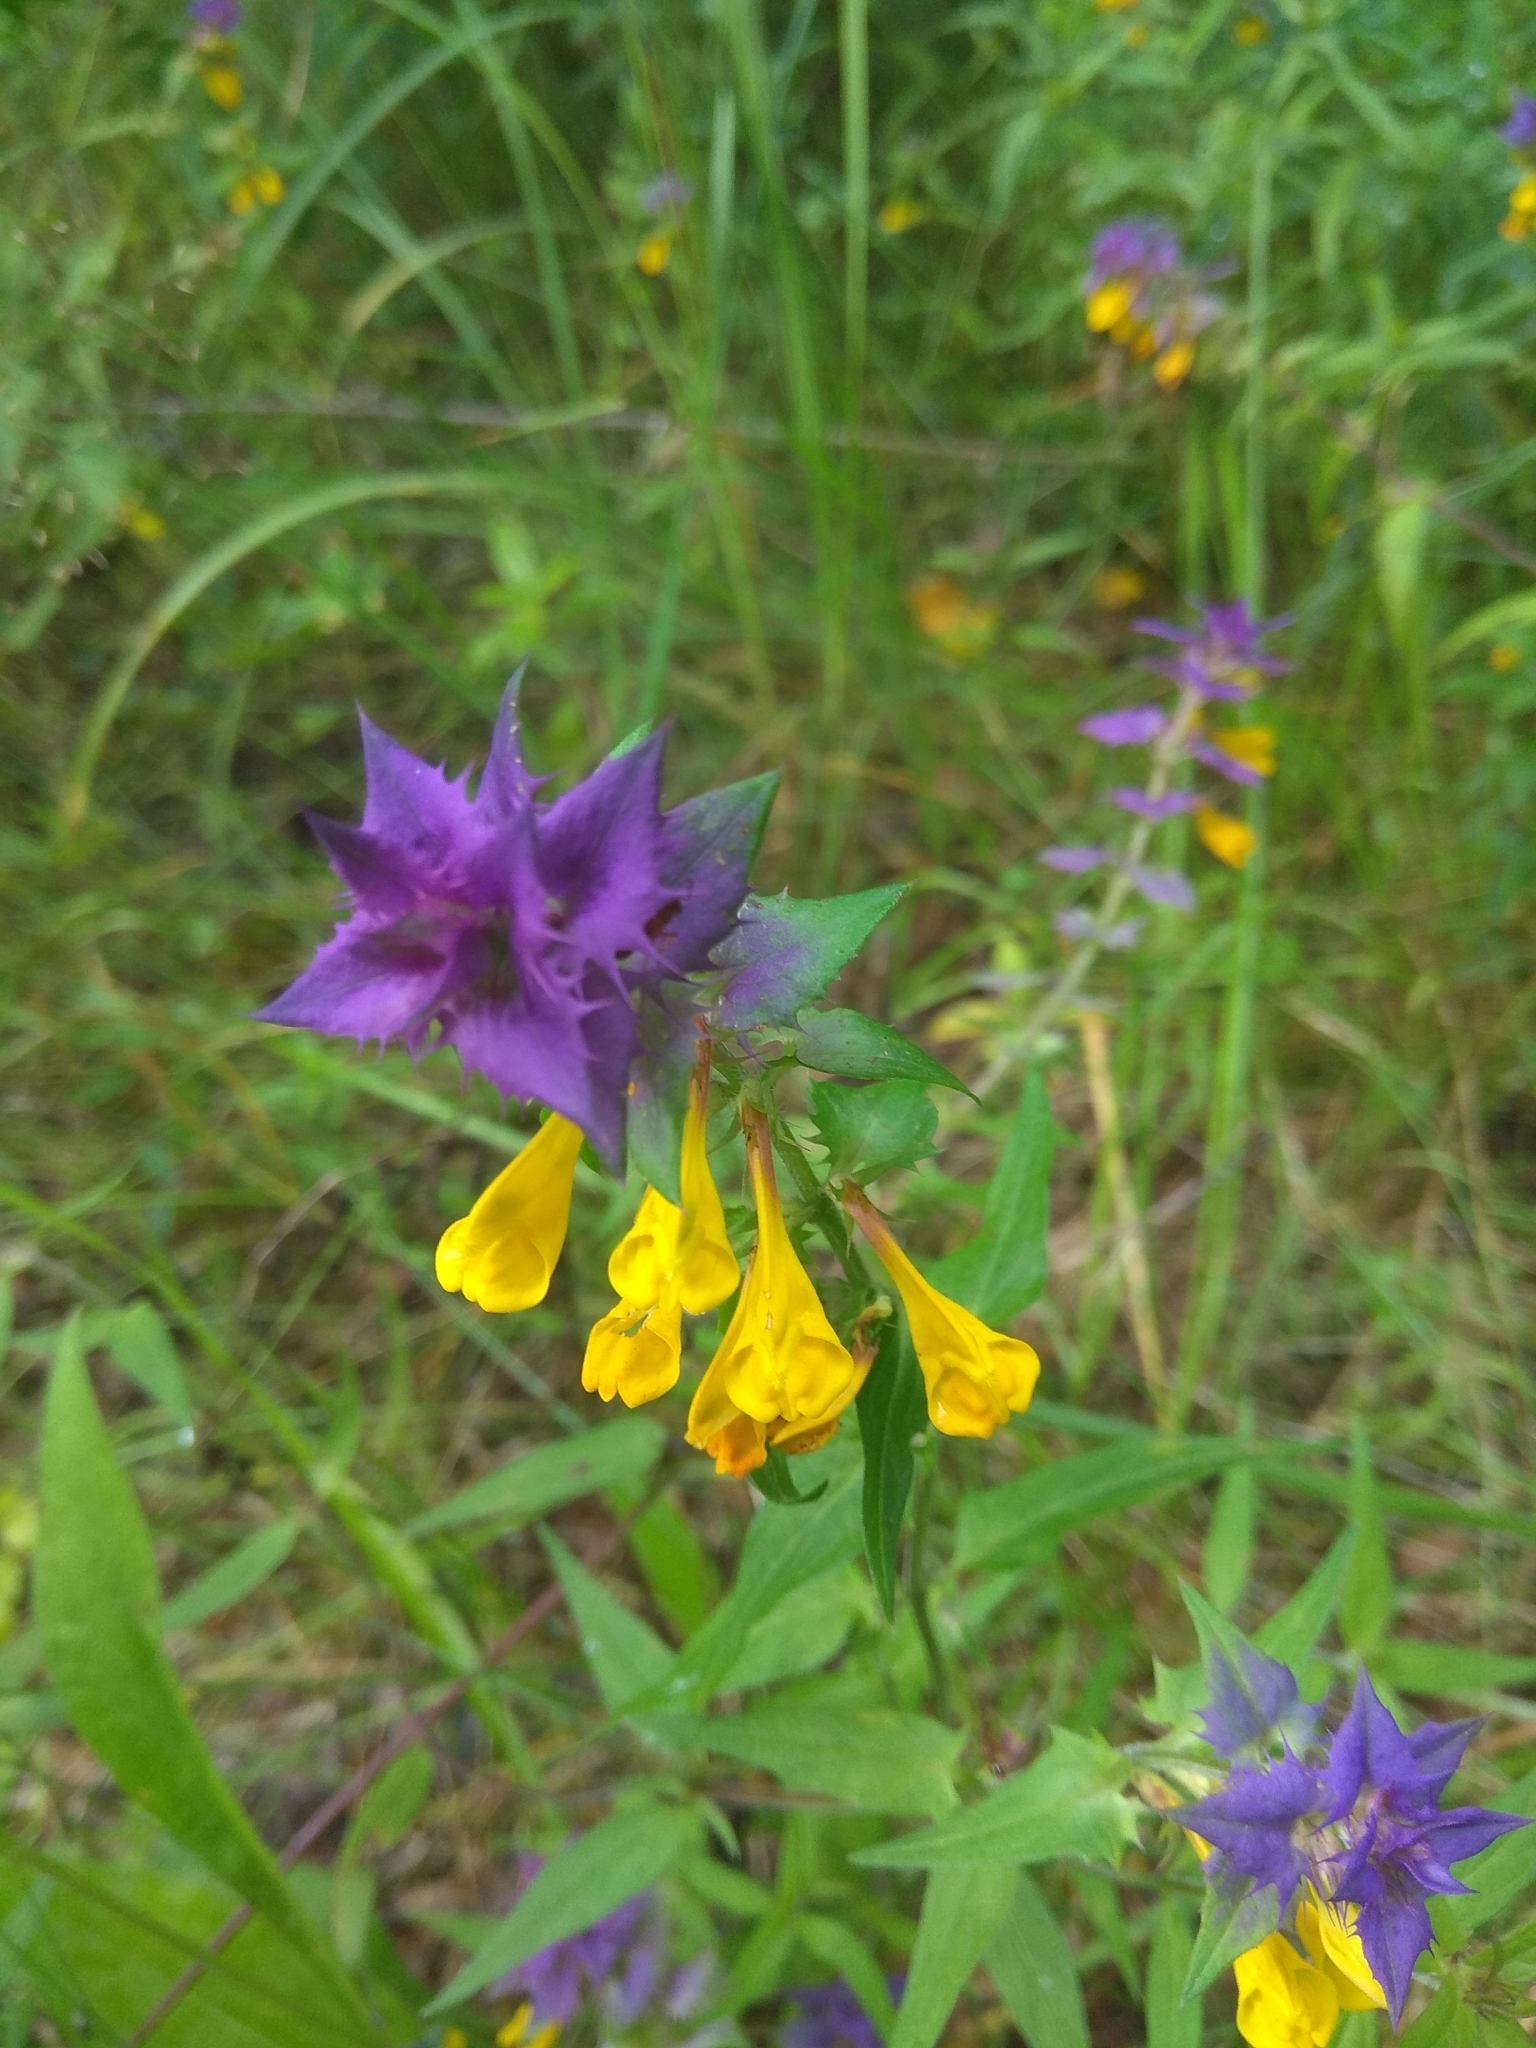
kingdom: Plantae
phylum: Tracheophyta
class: Magnoliopsida
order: Lamiales
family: Orobanchaceae
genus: Melampyrum
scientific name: Melampyrum nemorosum
